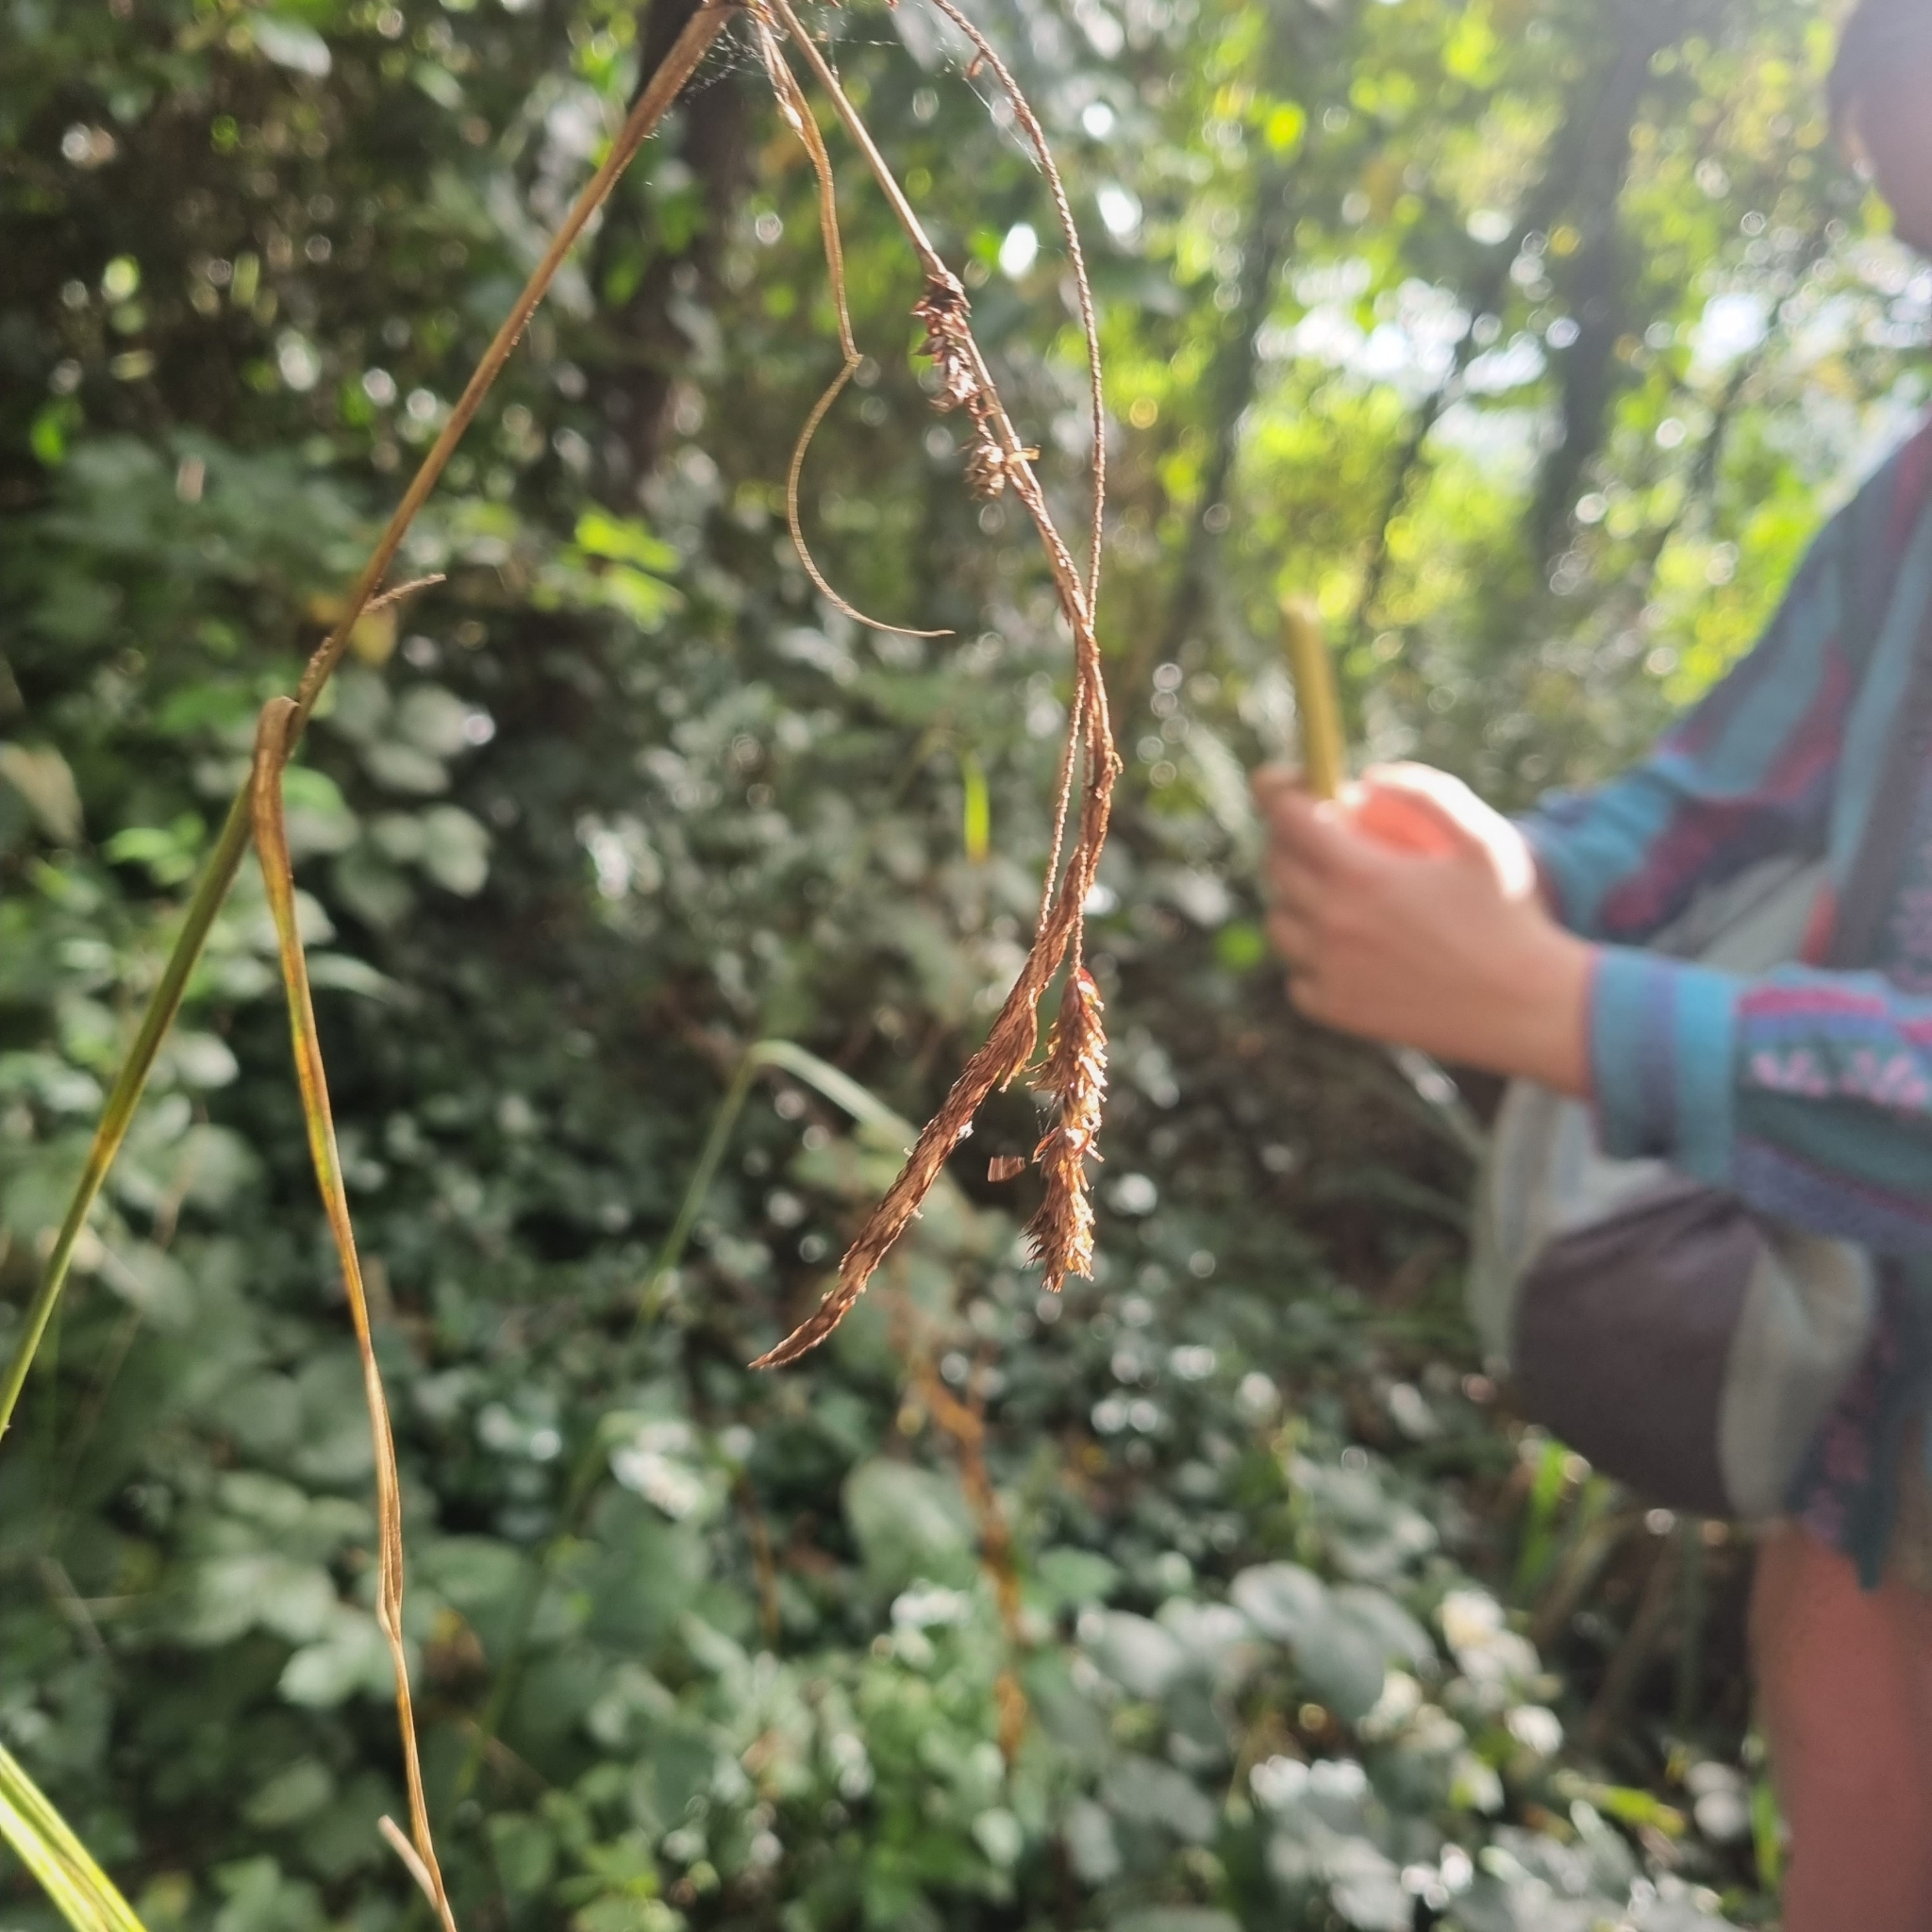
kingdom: Plantae
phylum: Tracheophyta
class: Liliopsida
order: Poales
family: Cyperaceae
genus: Carex
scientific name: Carex pendula
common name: Pendulous sedge
